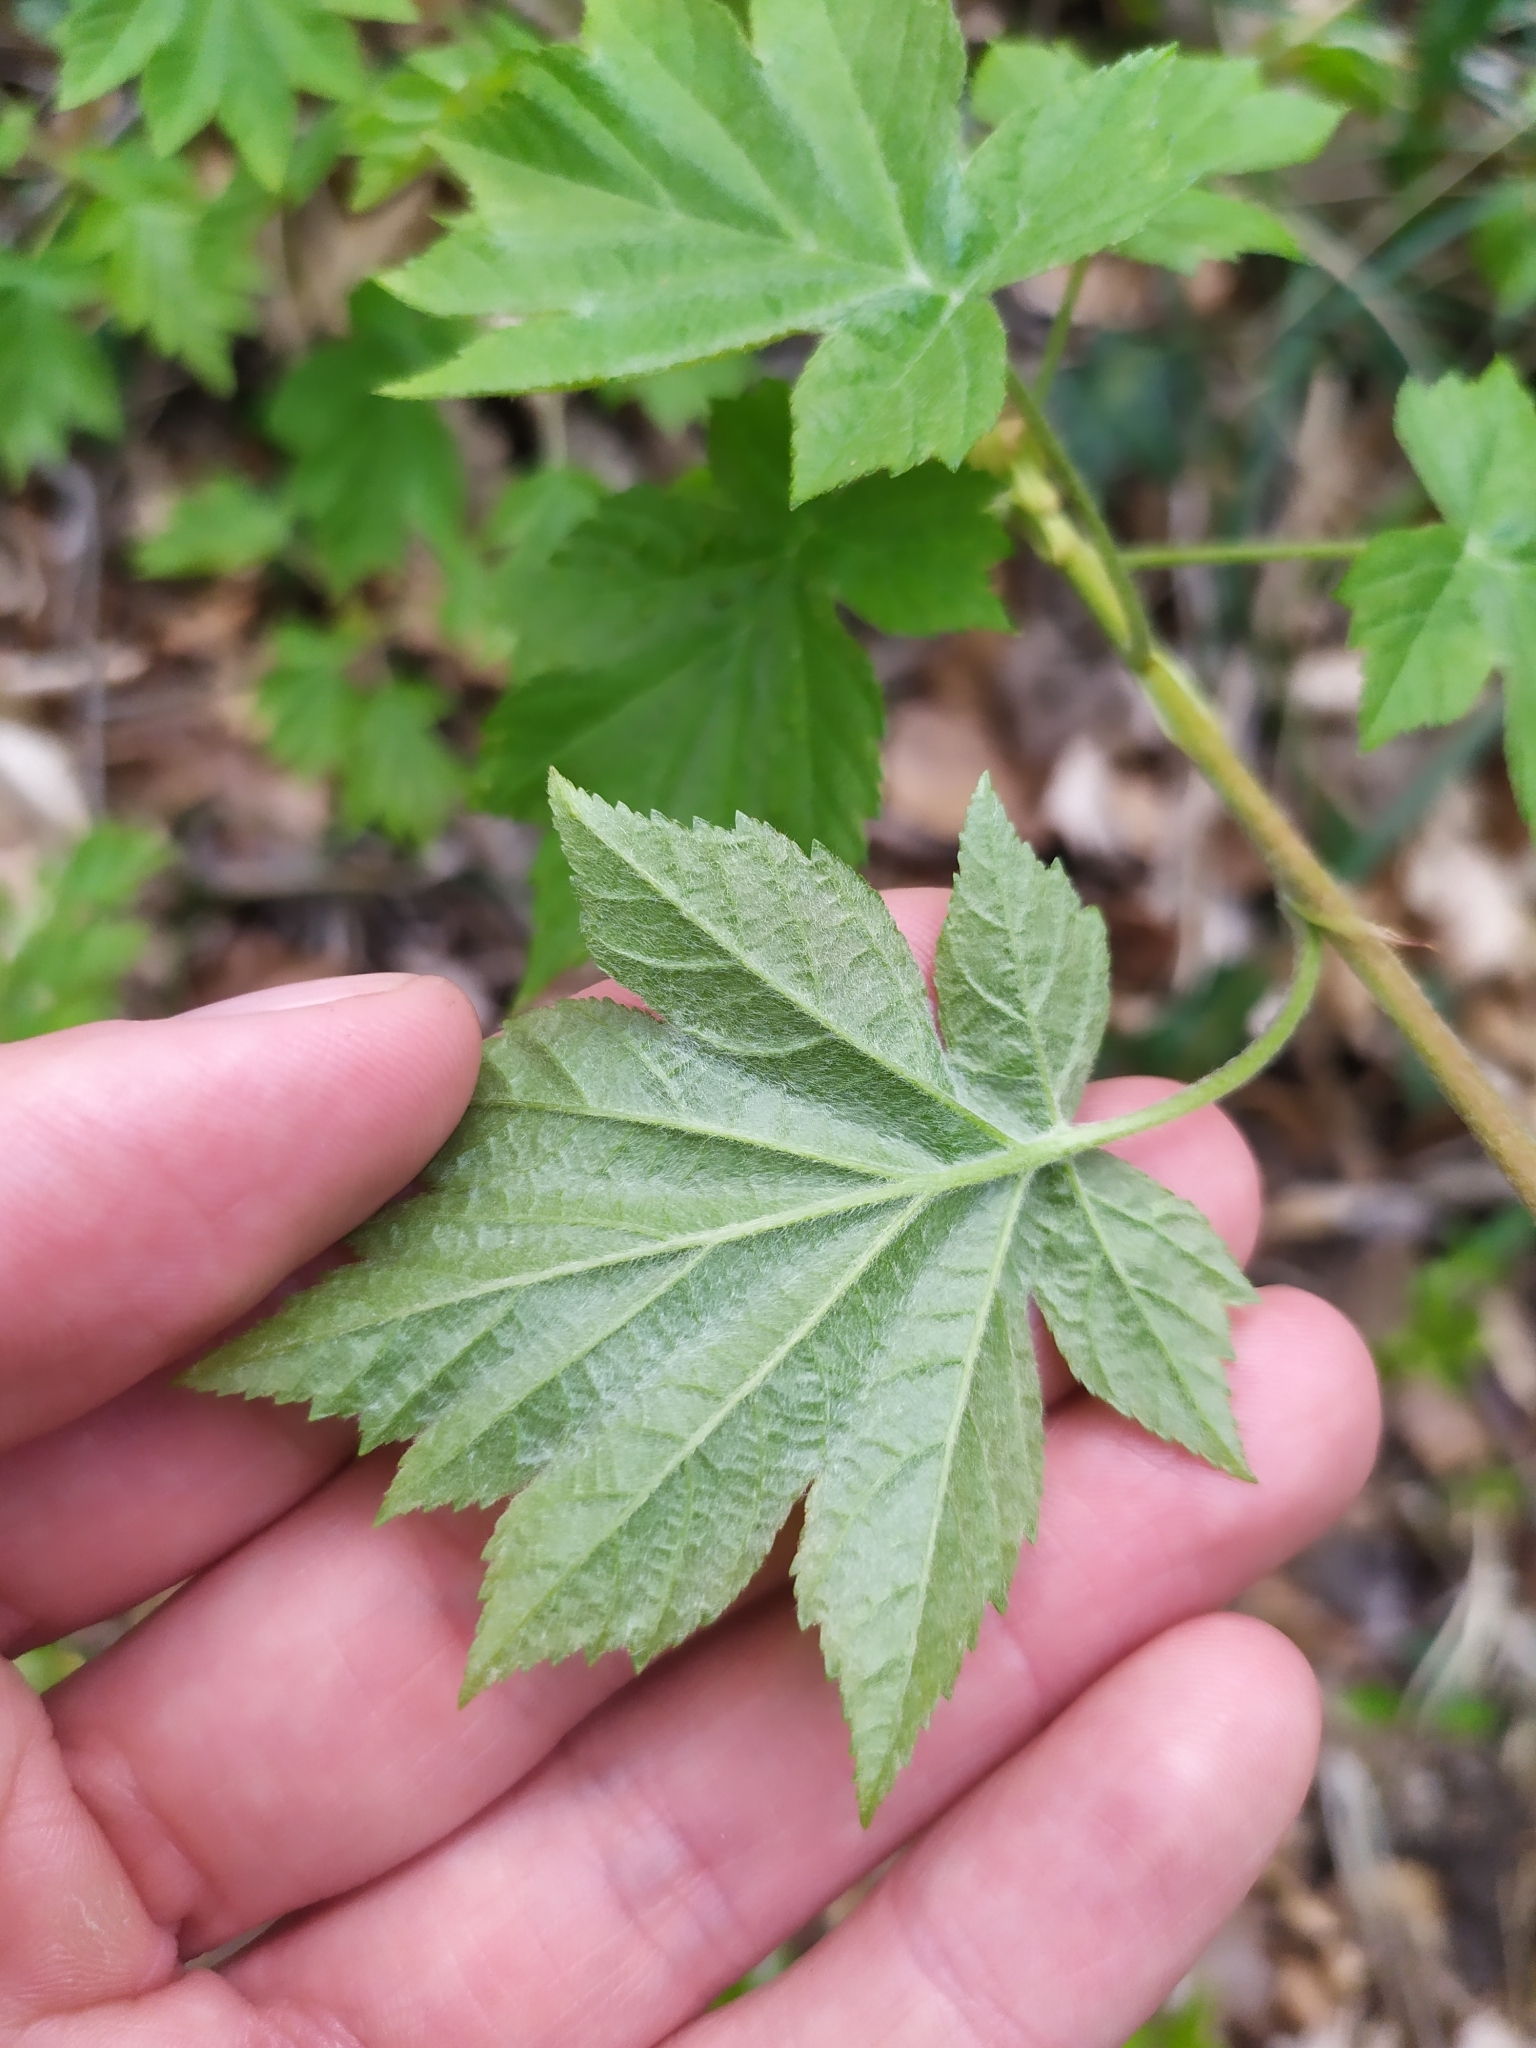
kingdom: Plantae
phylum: Tracheophyta
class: Magnoliopsida
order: Rosales
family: Rosaceae
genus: Torminalis
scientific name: Torminalis glaberrima
